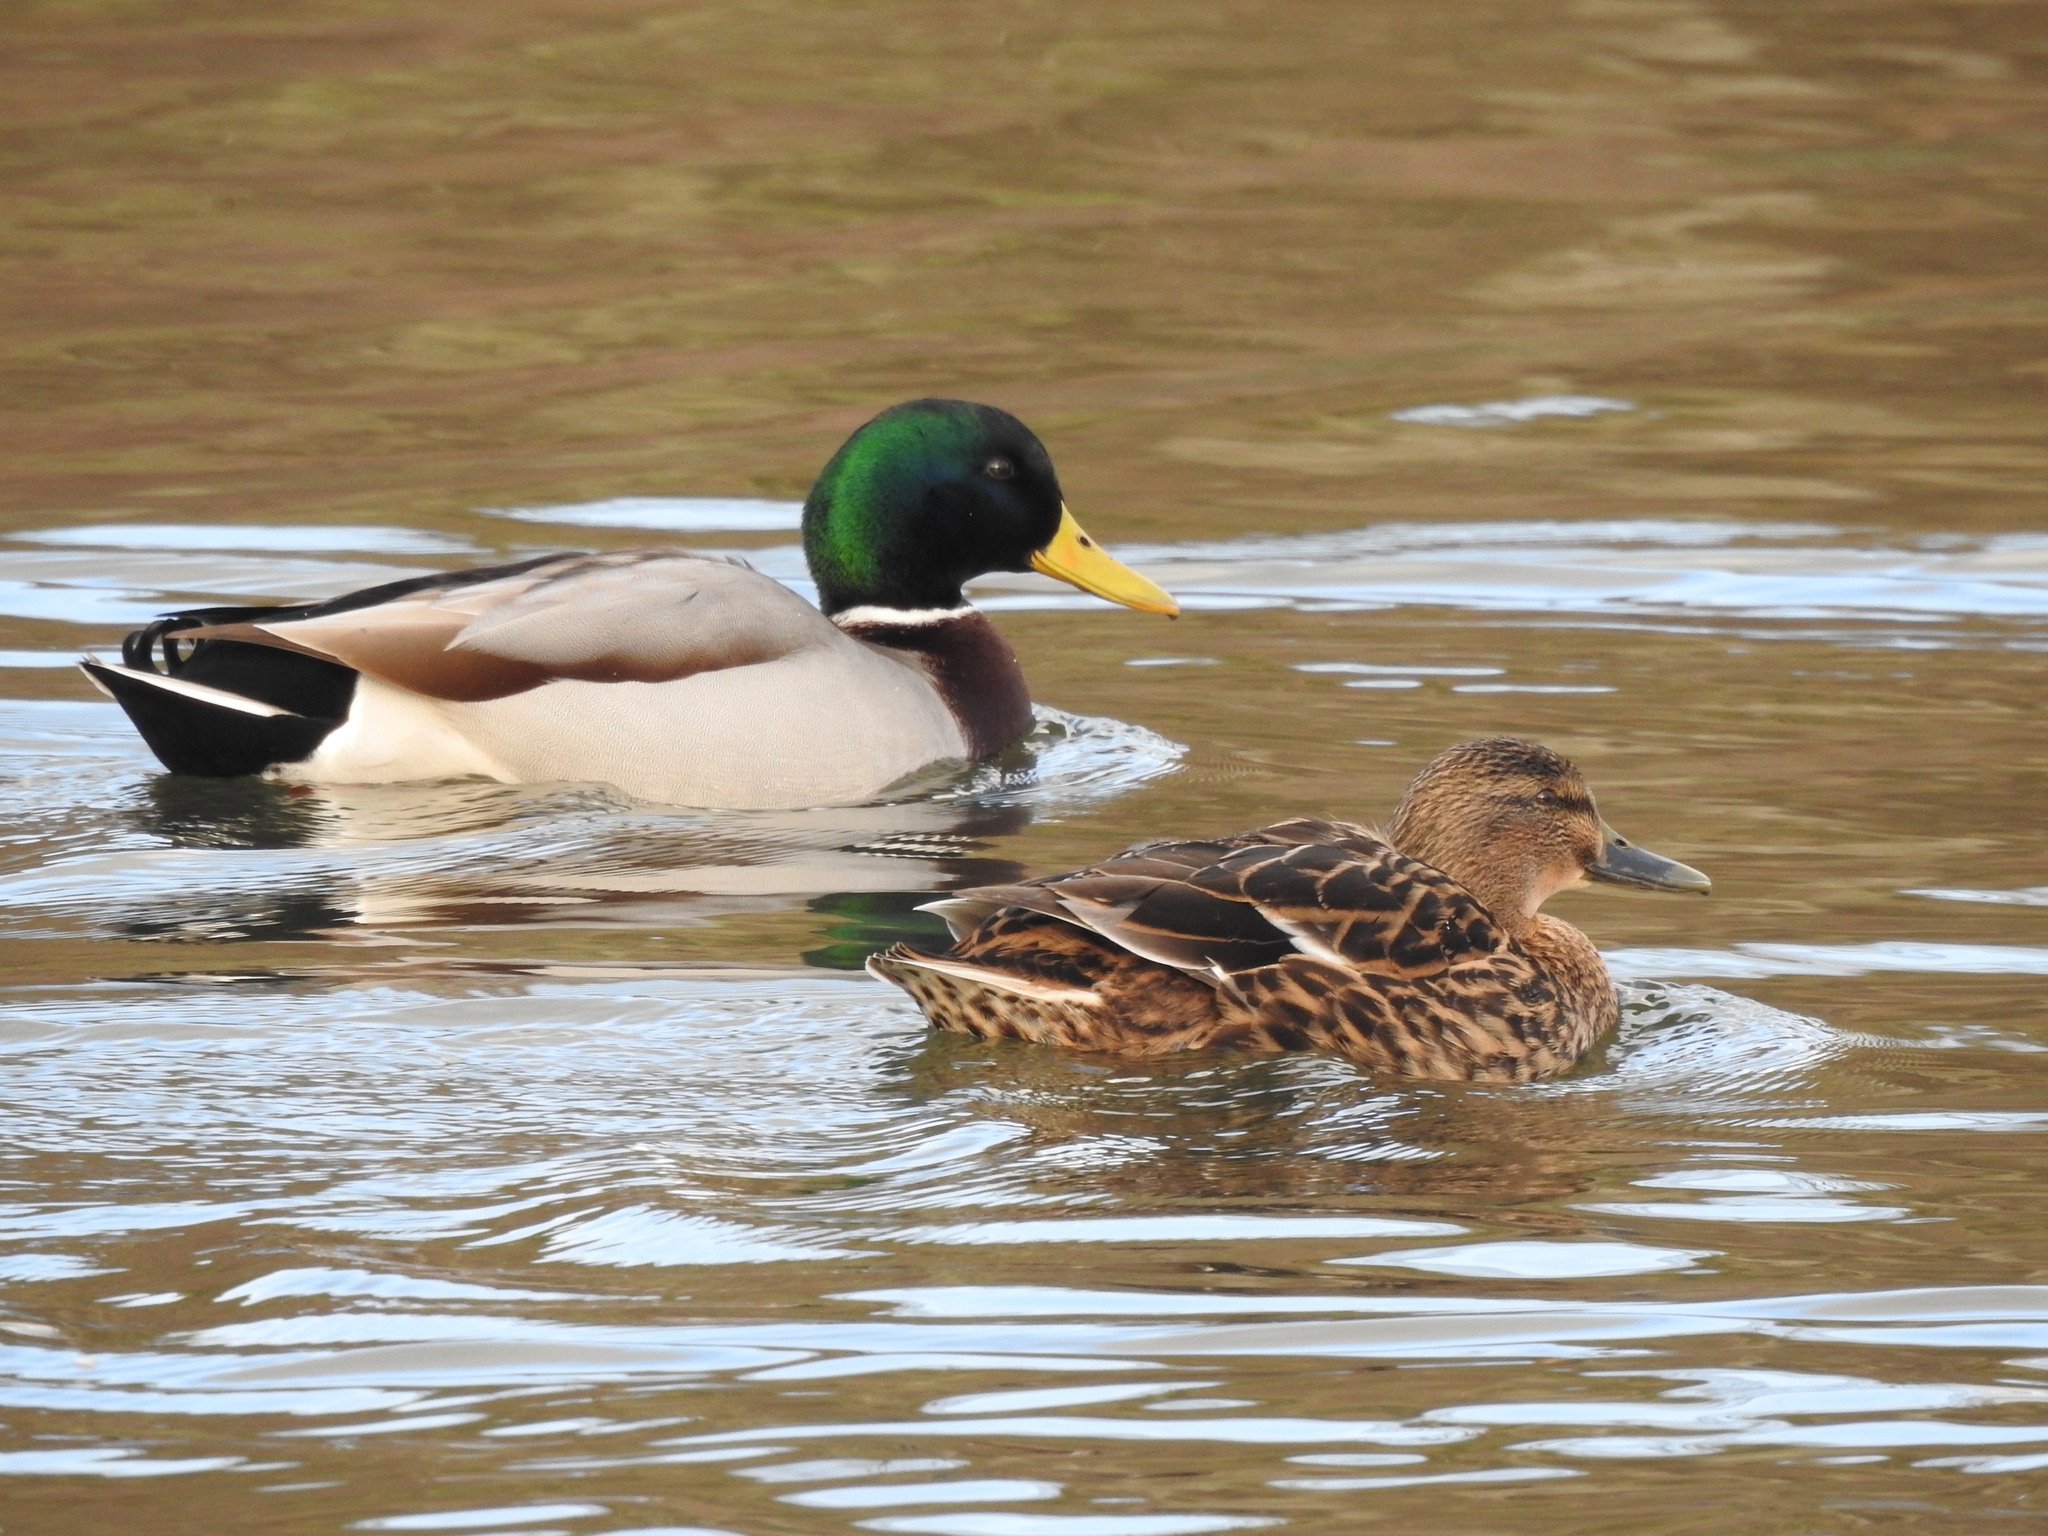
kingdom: Animalia
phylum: Chordata
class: Aves
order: Anseriformes
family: Anatidae
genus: Anas
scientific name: Anas platyrhynchos
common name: Mallard
